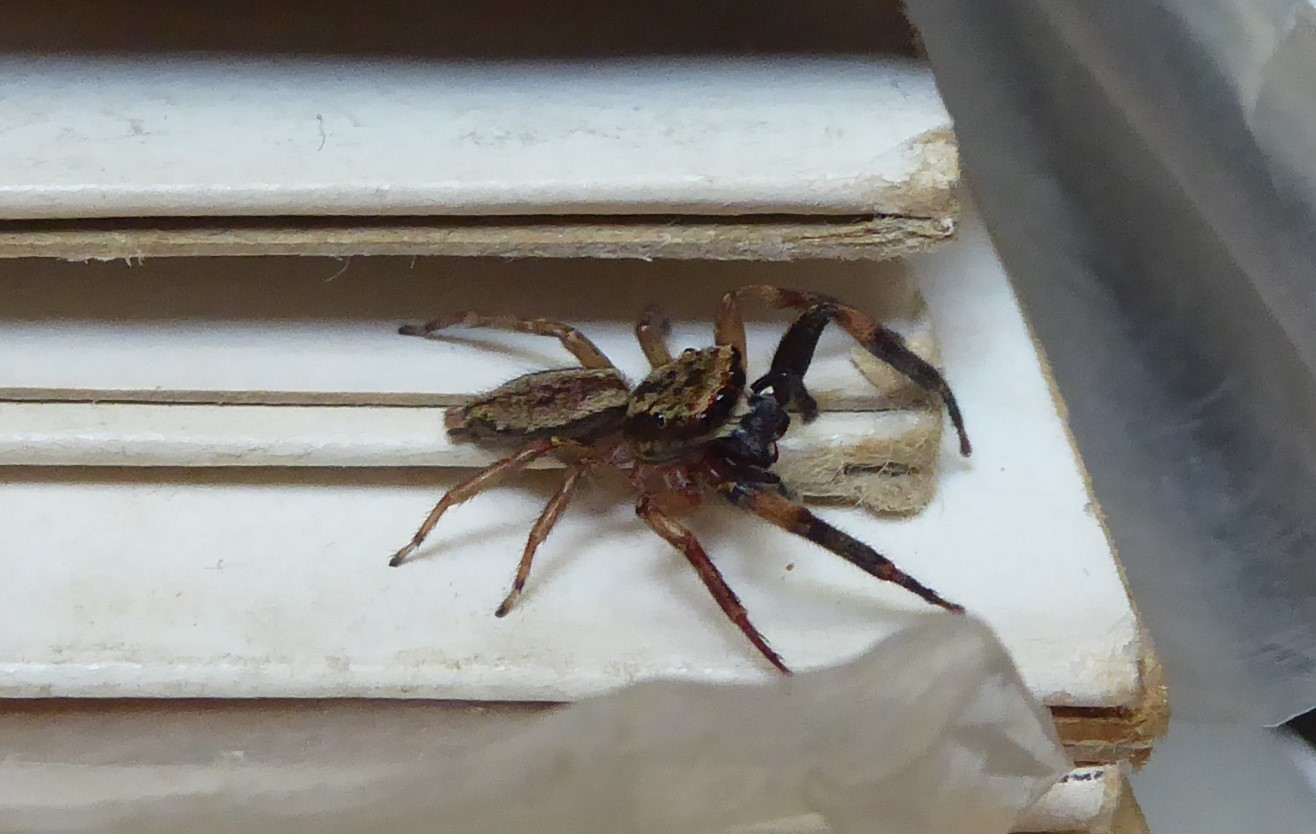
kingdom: Animalia
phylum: Arthropoda
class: Arachnida
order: Araneae
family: Salticidae
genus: Trite
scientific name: Trite auricoma
